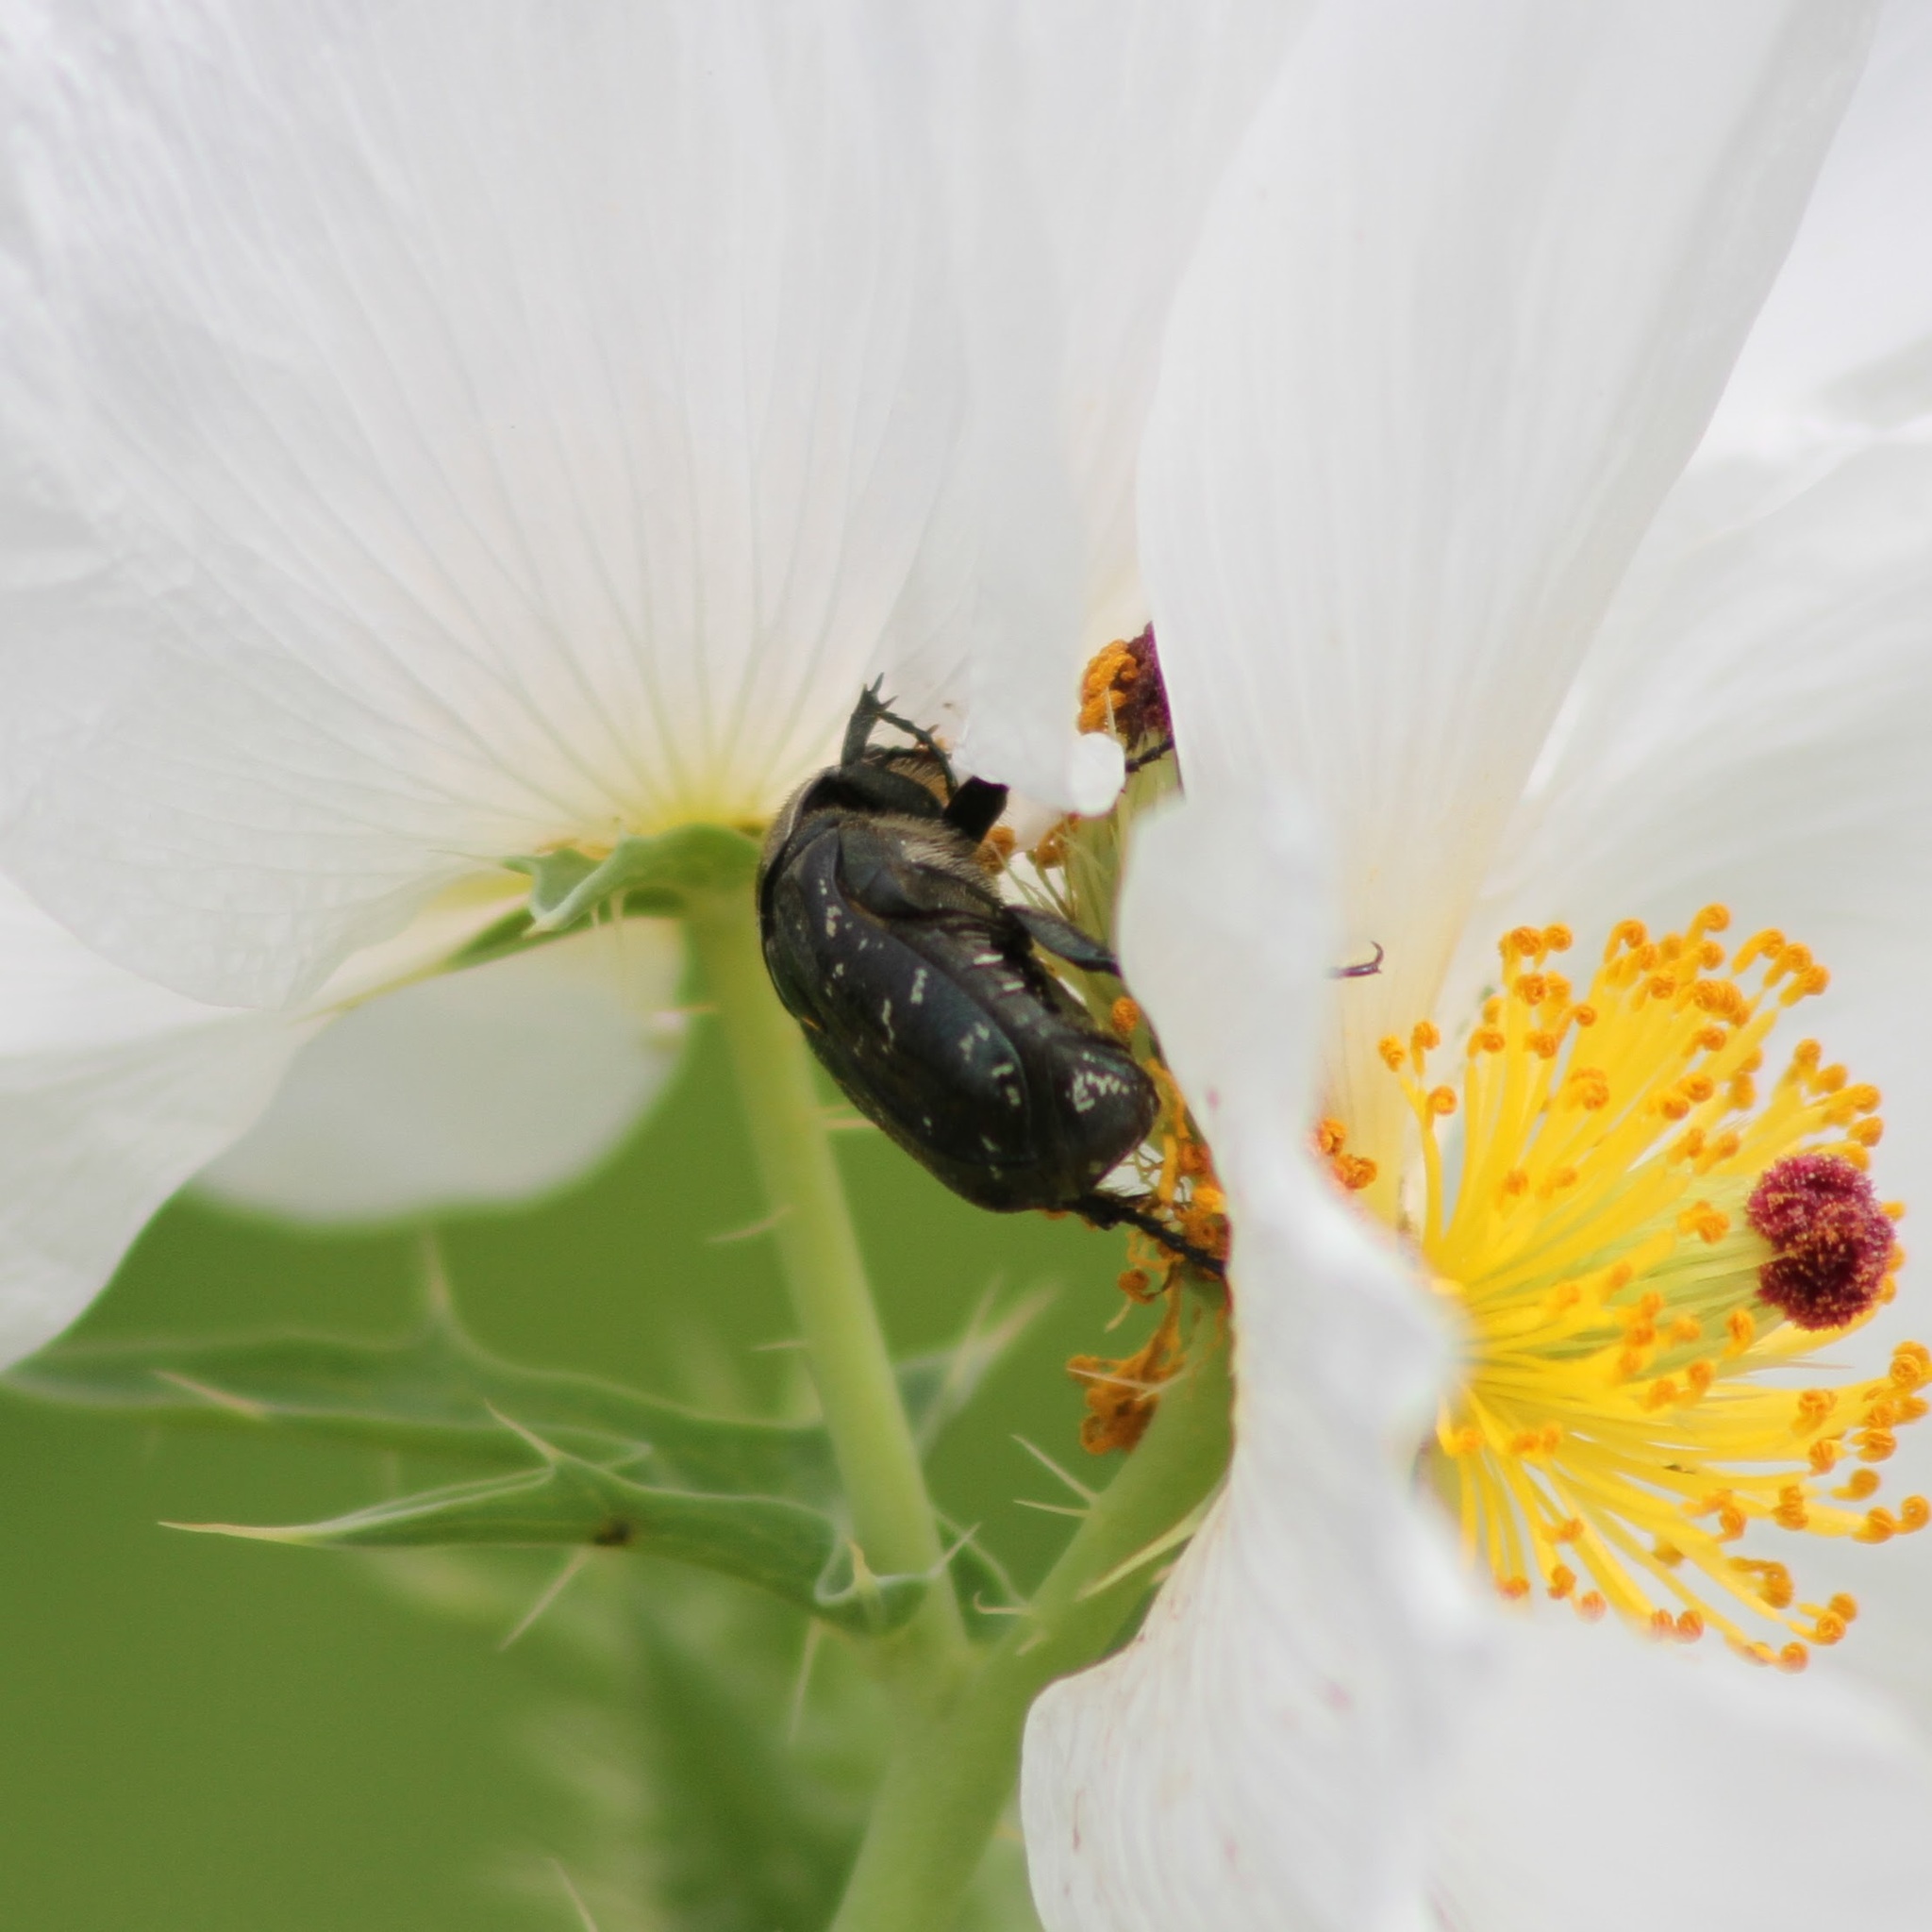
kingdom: Animalia
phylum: Arthropoda
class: Insecta
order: Coleoptera
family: Scarabaeidae
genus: Euphoria
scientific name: Euphoria sepulcralis
